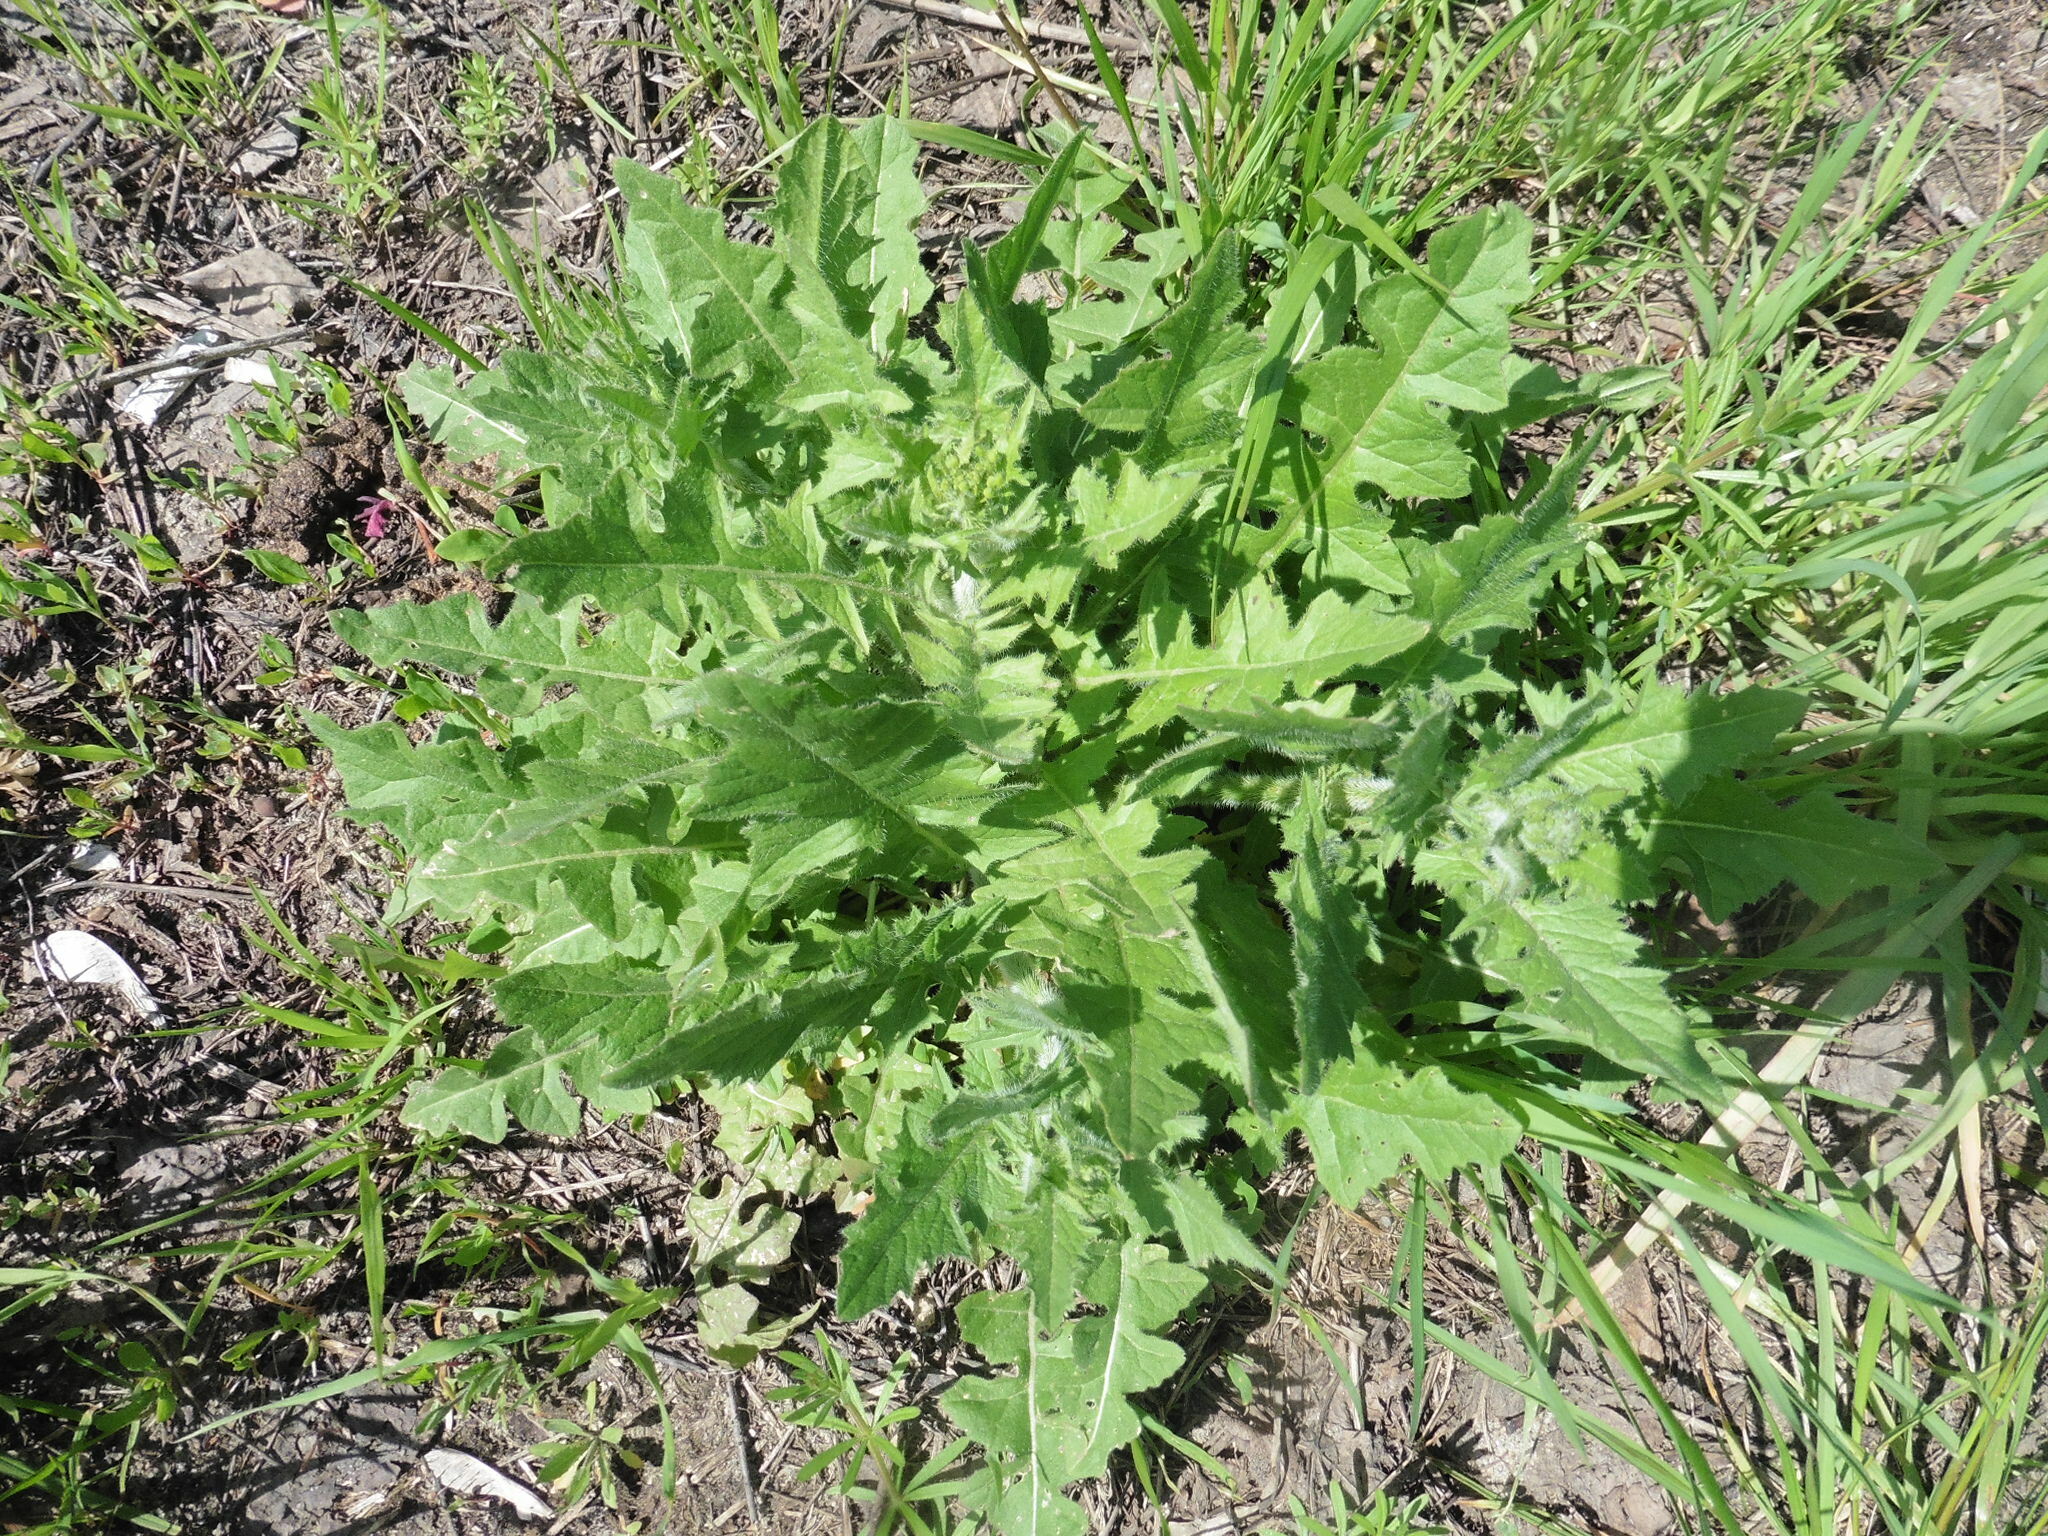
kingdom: Plantae
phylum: Tracheophyta
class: Magnoliopsida
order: Brassicales
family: Brassicaceae
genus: Sisymbrium
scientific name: Sisymbrium loeselii
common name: False london-rocket
